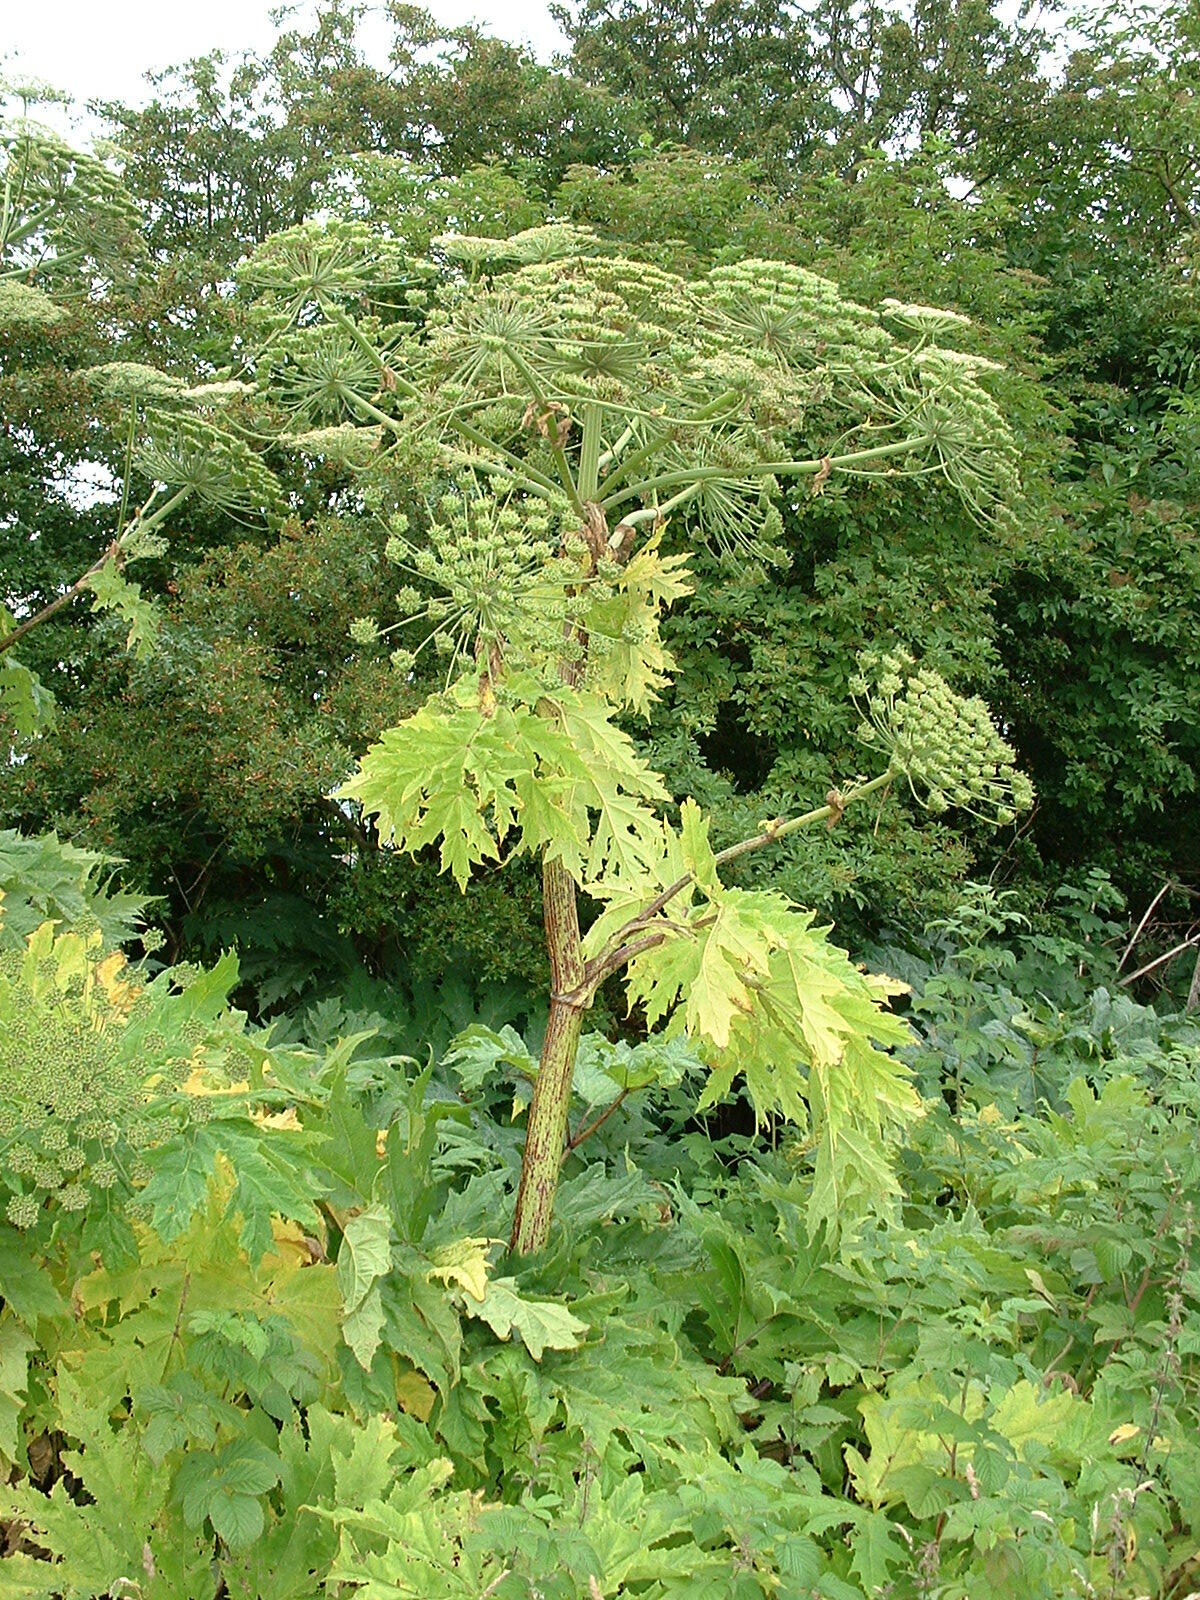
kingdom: Plantae
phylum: Tracheophyta
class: Magnoliopsida
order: Apiales
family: Apiaceae
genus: Heracleum
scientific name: Heracleum mantegazzianum
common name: Giant hogweed
